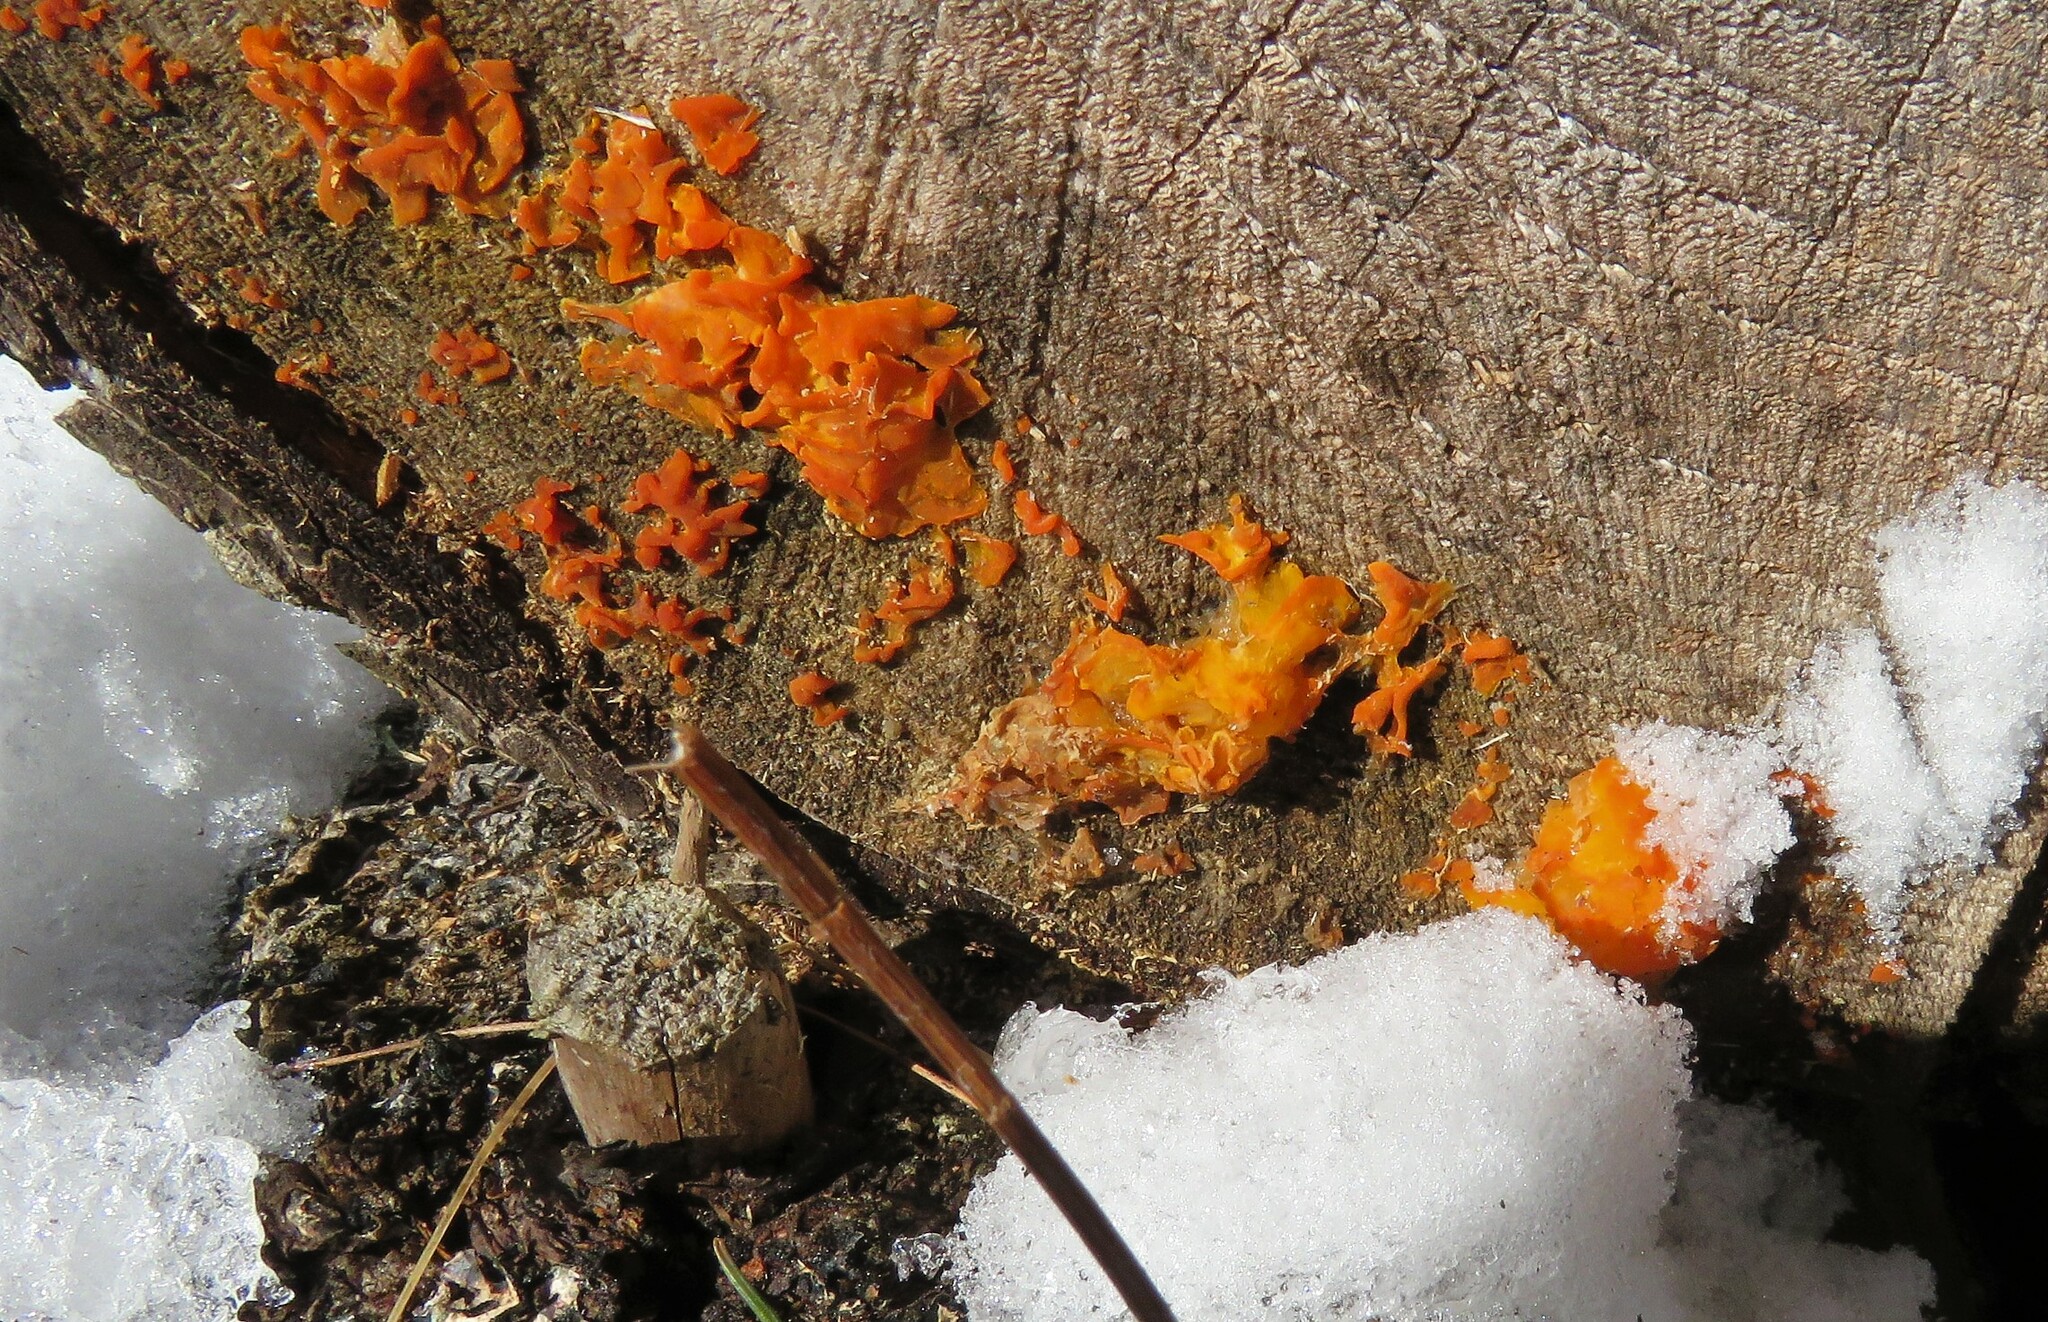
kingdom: Fungi
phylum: Basidiomycota
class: Dacrymycetes
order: Dacrymycetales
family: Dacrymycetaceae
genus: Dacrymyces
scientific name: Dacrymyces chrysospermus
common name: Orange jelly spot
